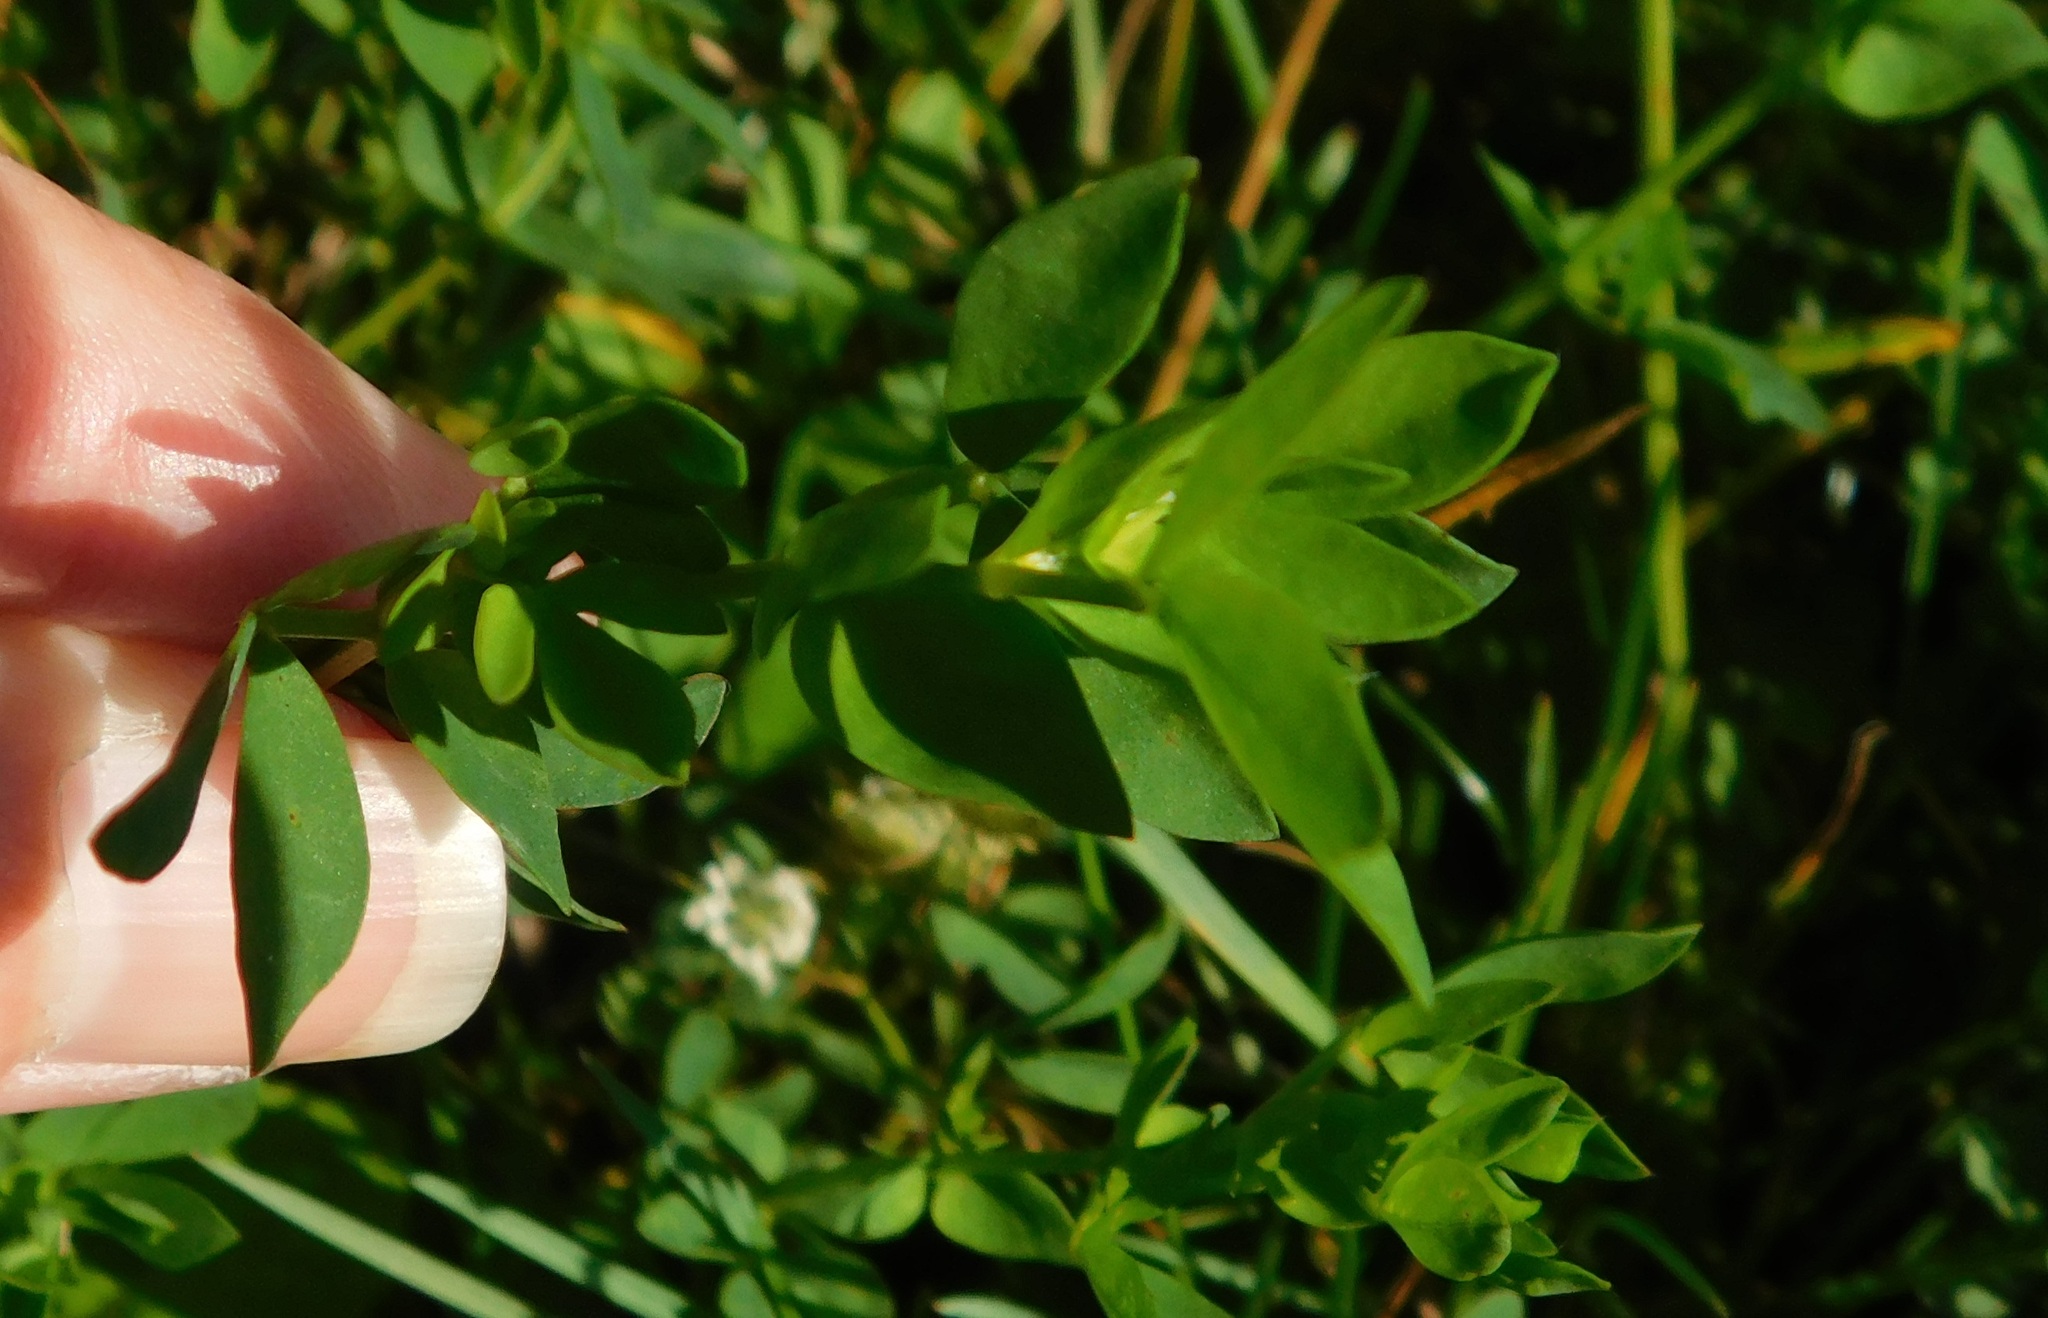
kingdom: Plantae
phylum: Tracheophyta
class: Magnoliopsida
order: Fabales
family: Fabaceae
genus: Lotus
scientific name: Lotus corniculatus
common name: Common bird's-foot-trefoil
